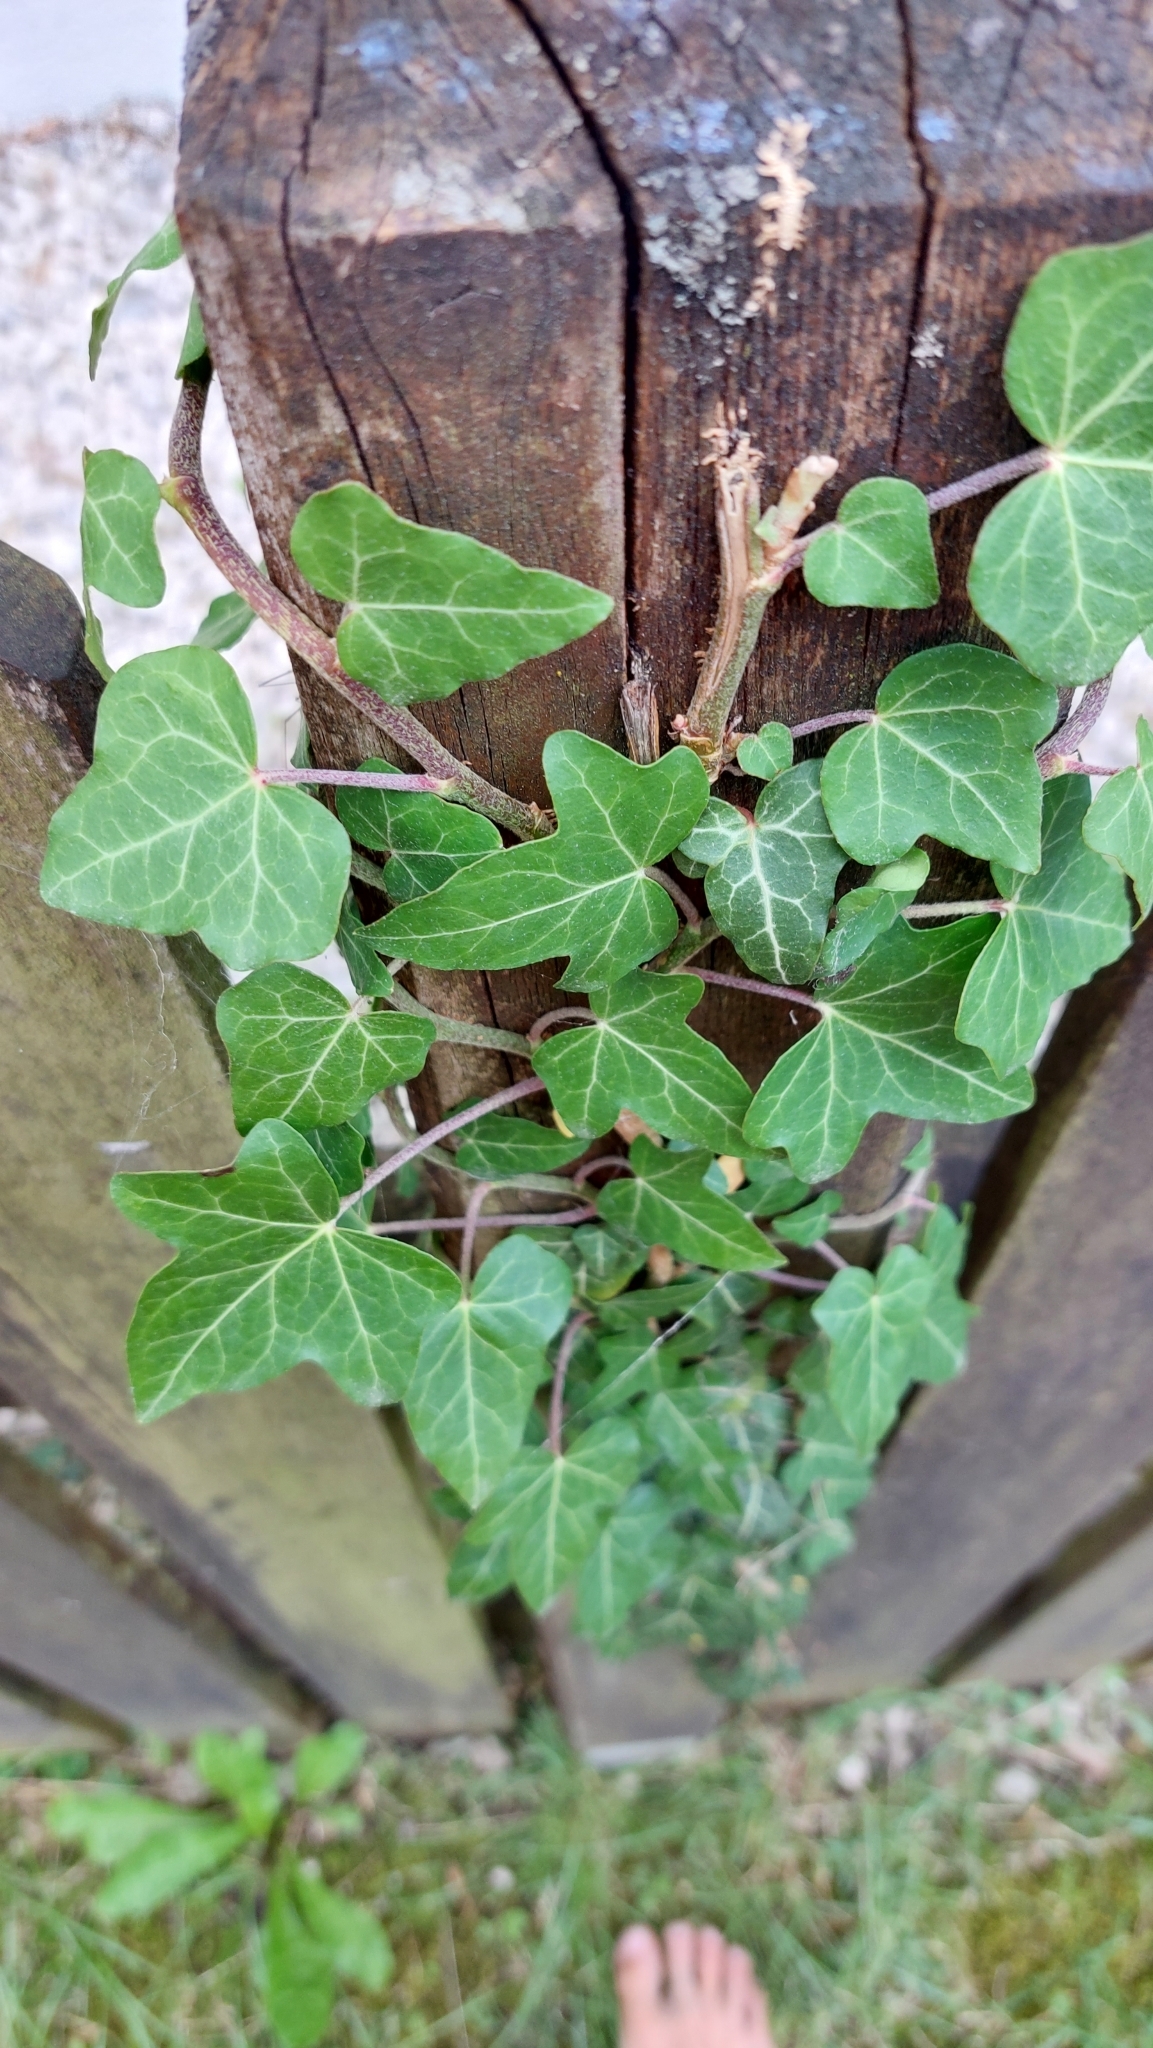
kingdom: Plantae
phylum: Tracheophyta
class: Magnoliopsida
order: Apiales
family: Araliaceae
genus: Hedera
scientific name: Hedera helix
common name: Ivy
